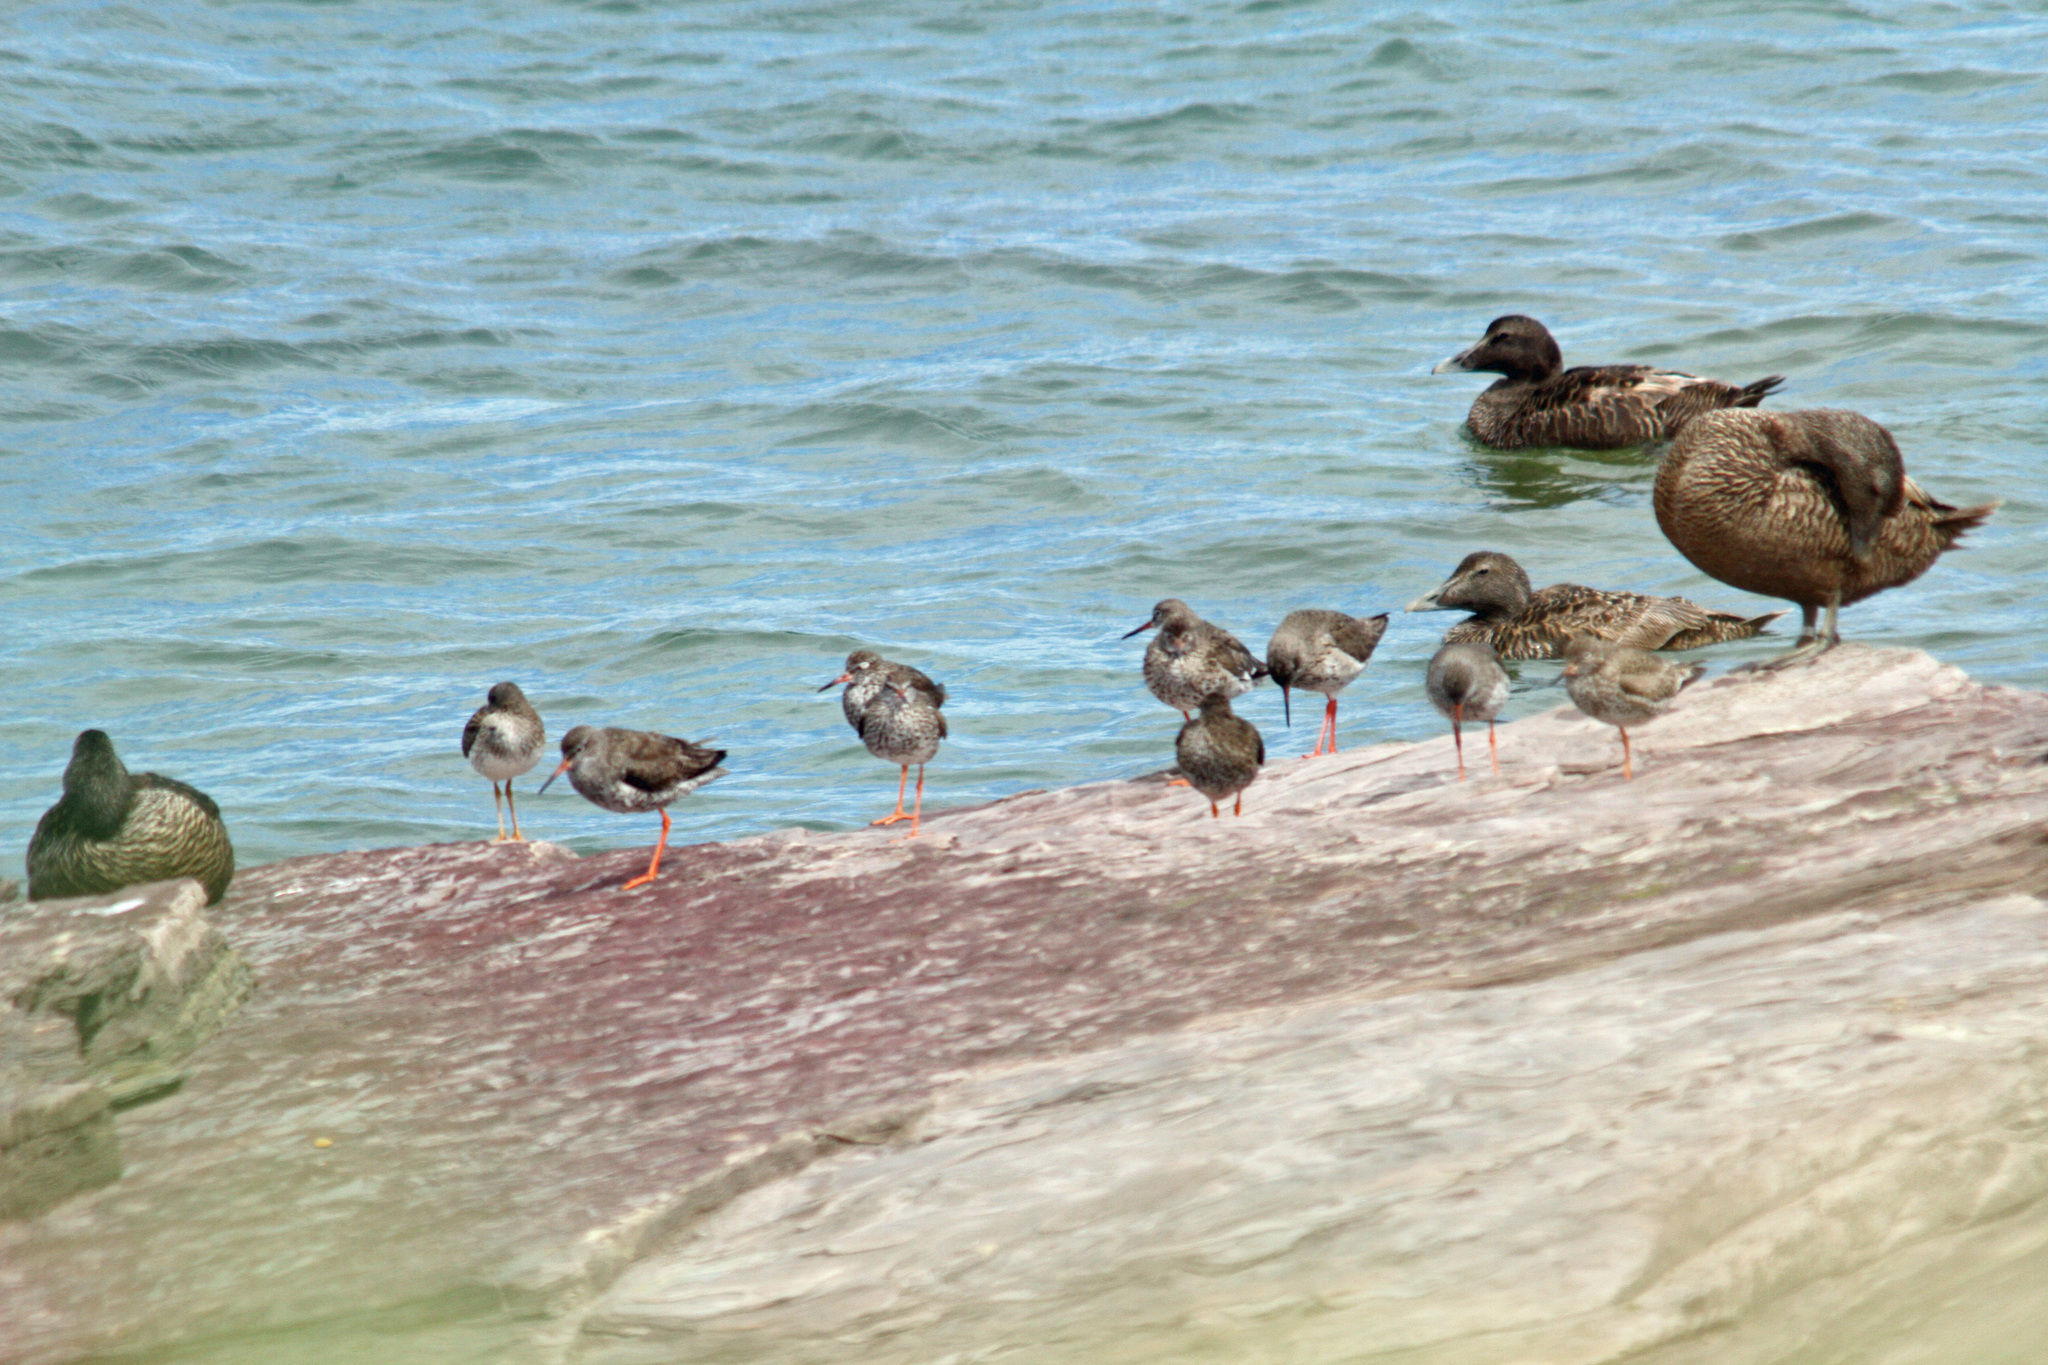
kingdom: Animalia
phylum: Chordata
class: Aves
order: Anseriformes
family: Anatidae
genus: Somateria
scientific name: Somateria mollissima
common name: Common eider
